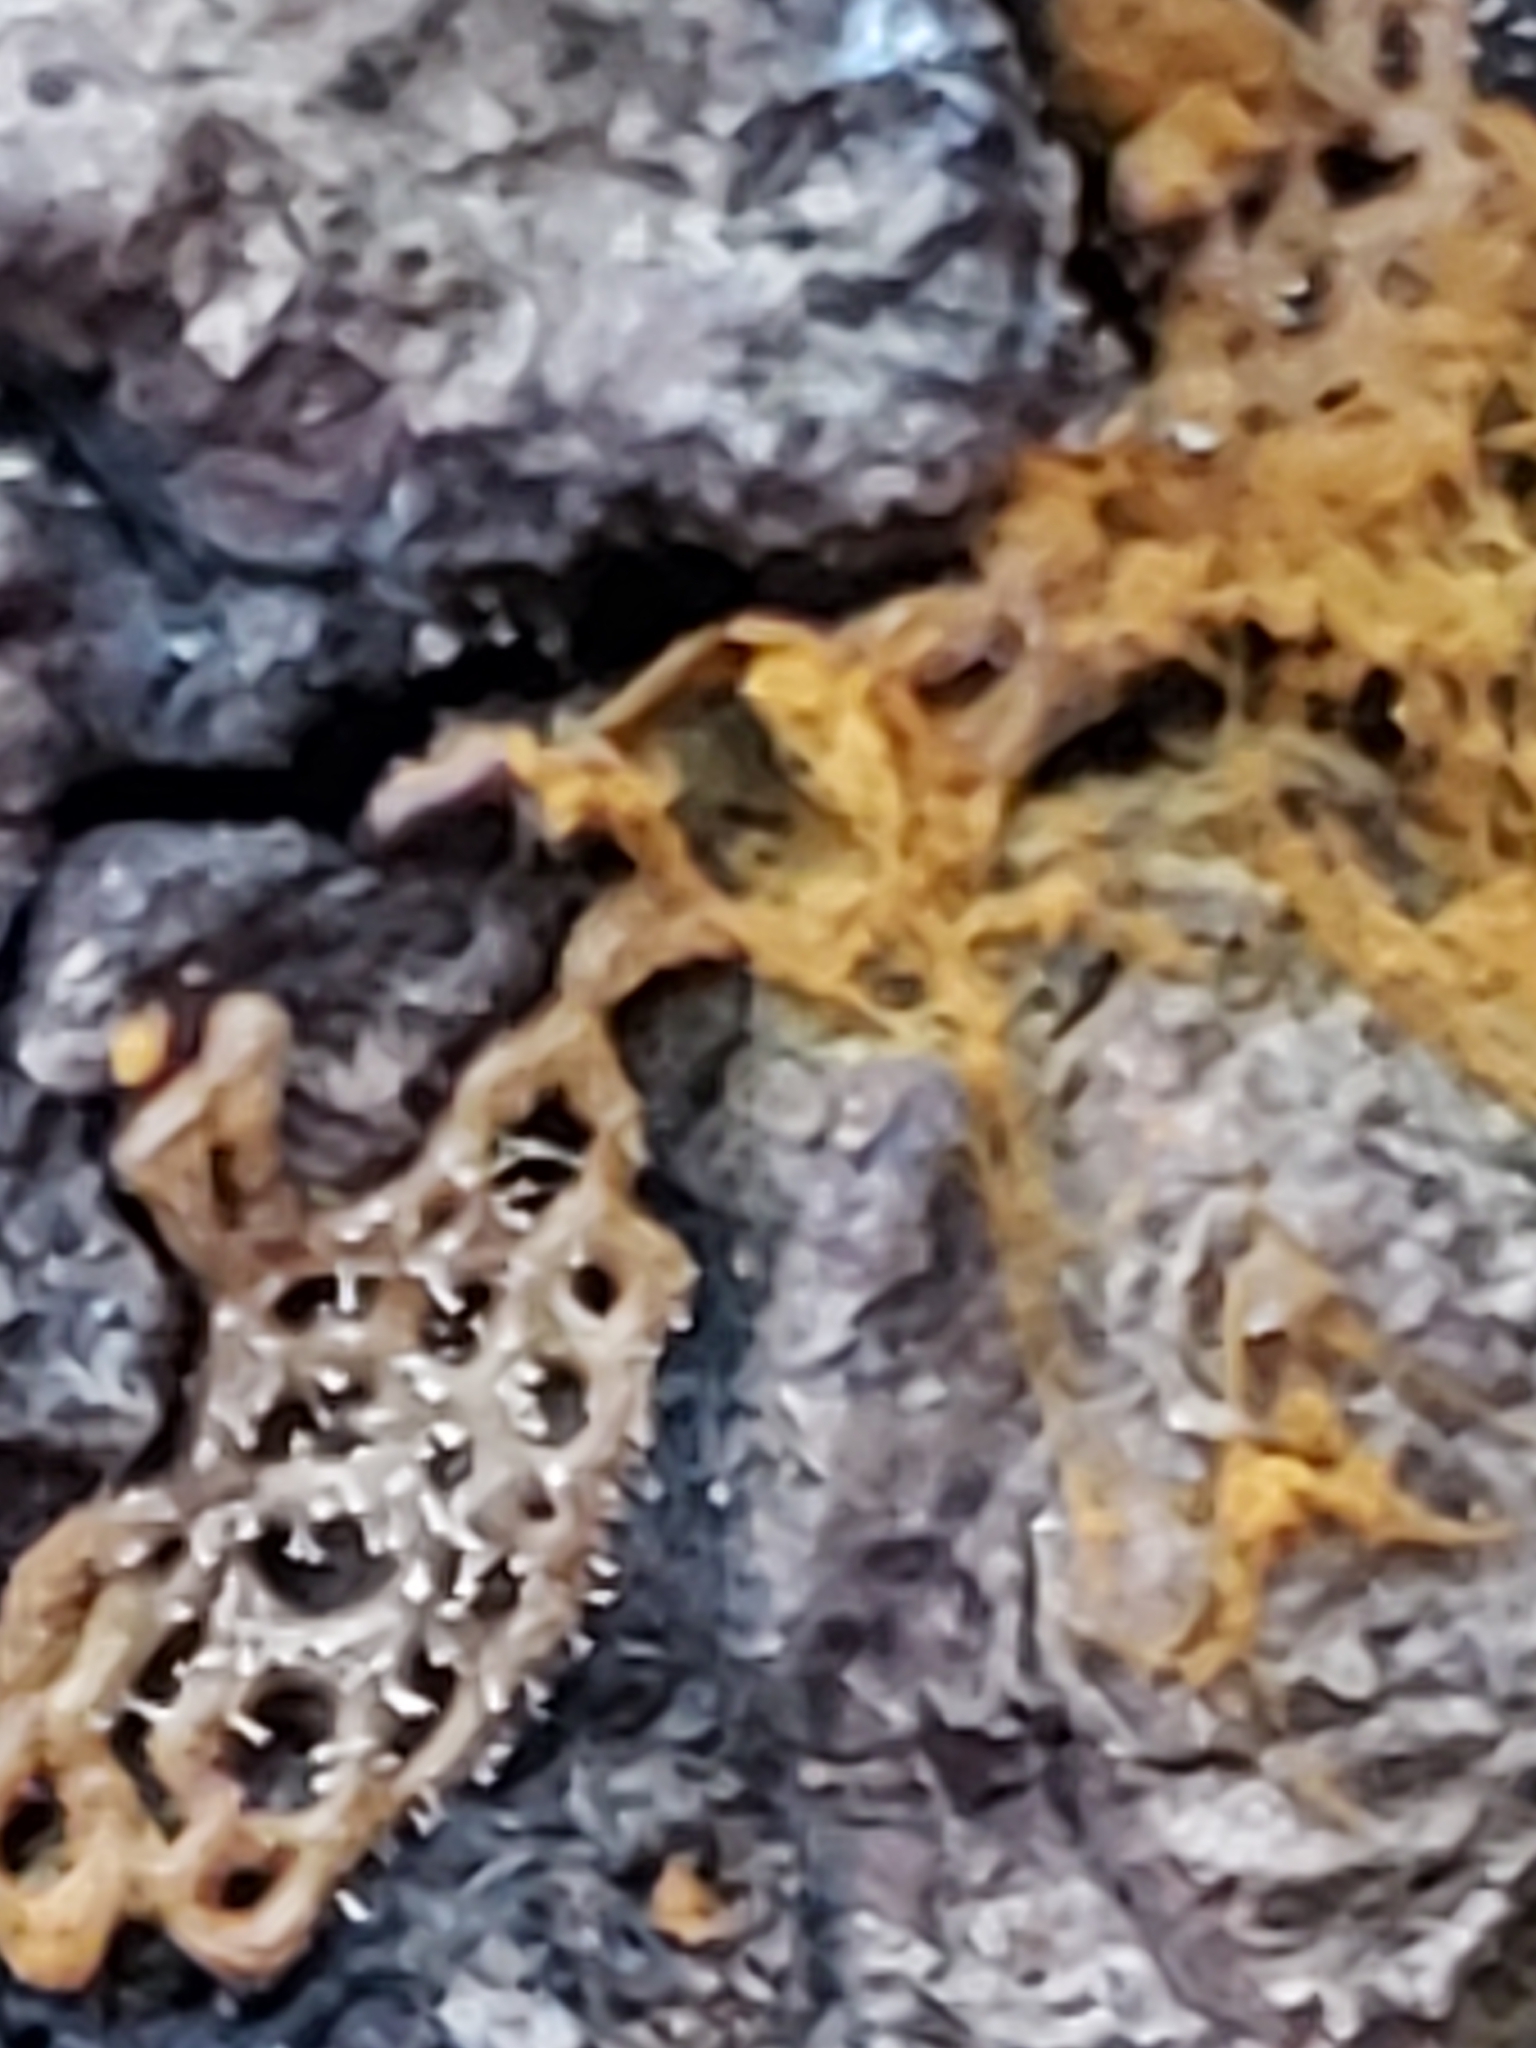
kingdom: Fungi
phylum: Ascomycota
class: Sordariomycetes
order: Hypocreales
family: Ophiocordycipitaceae
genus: Polycephalomyces
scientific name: Polycephalomyces tomentosus
